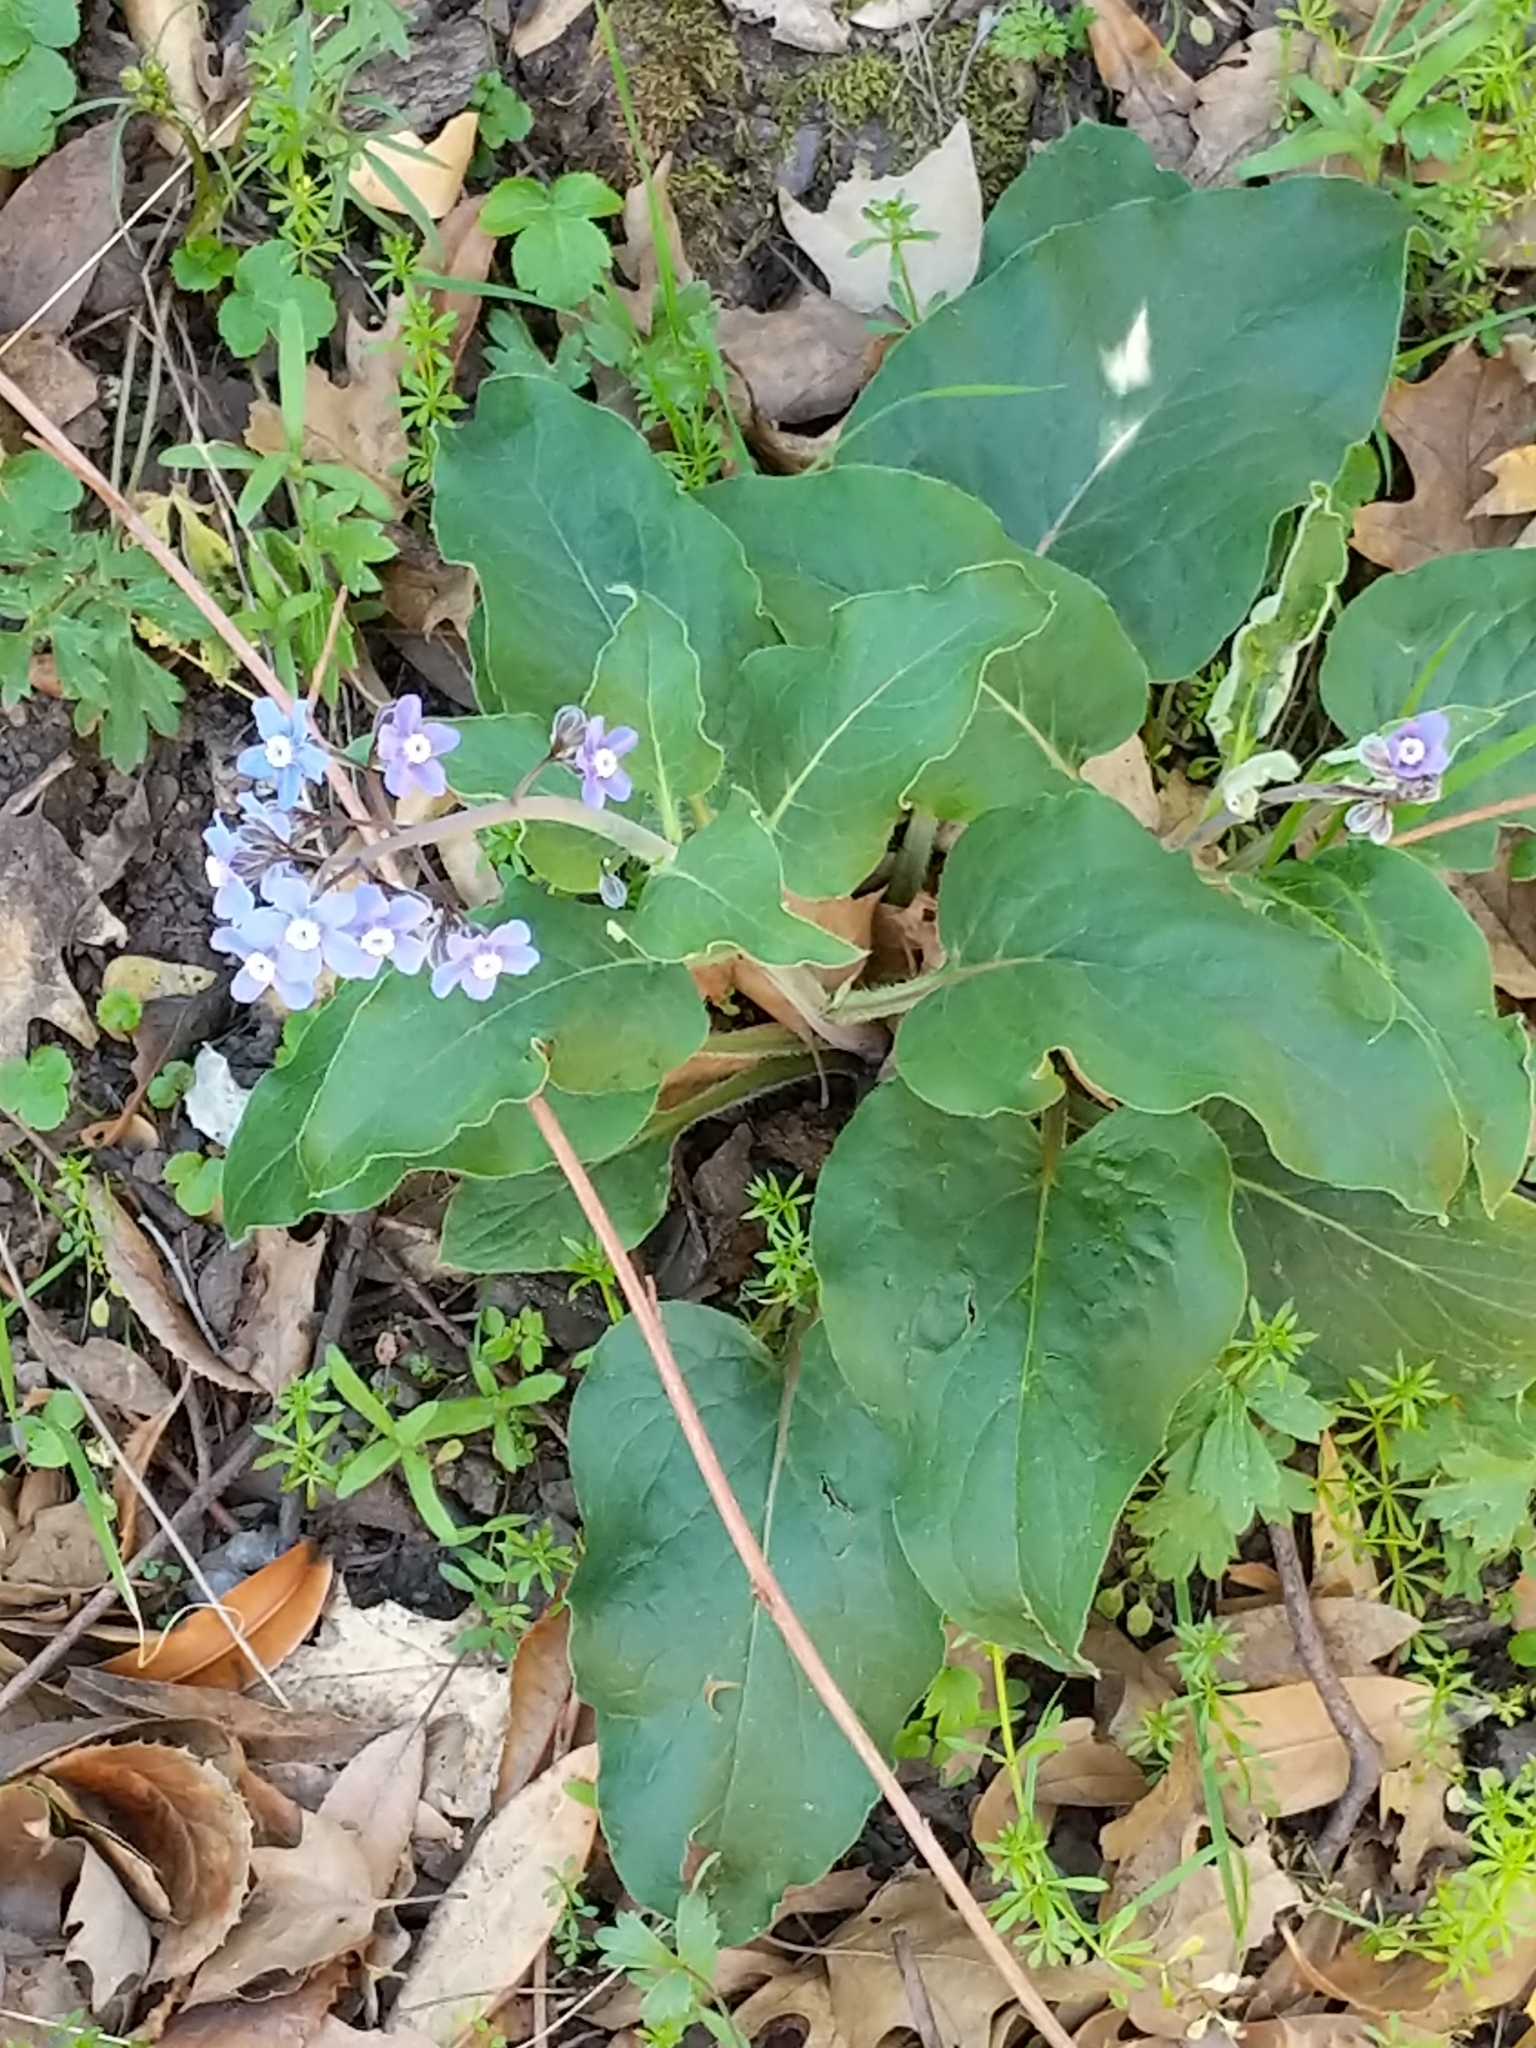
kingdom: Plantae
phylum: Tracheophyta
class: Magnoliopsida
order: Boraginales
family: Boraginaceae
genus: Adelinia
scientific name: Adelinia grande
